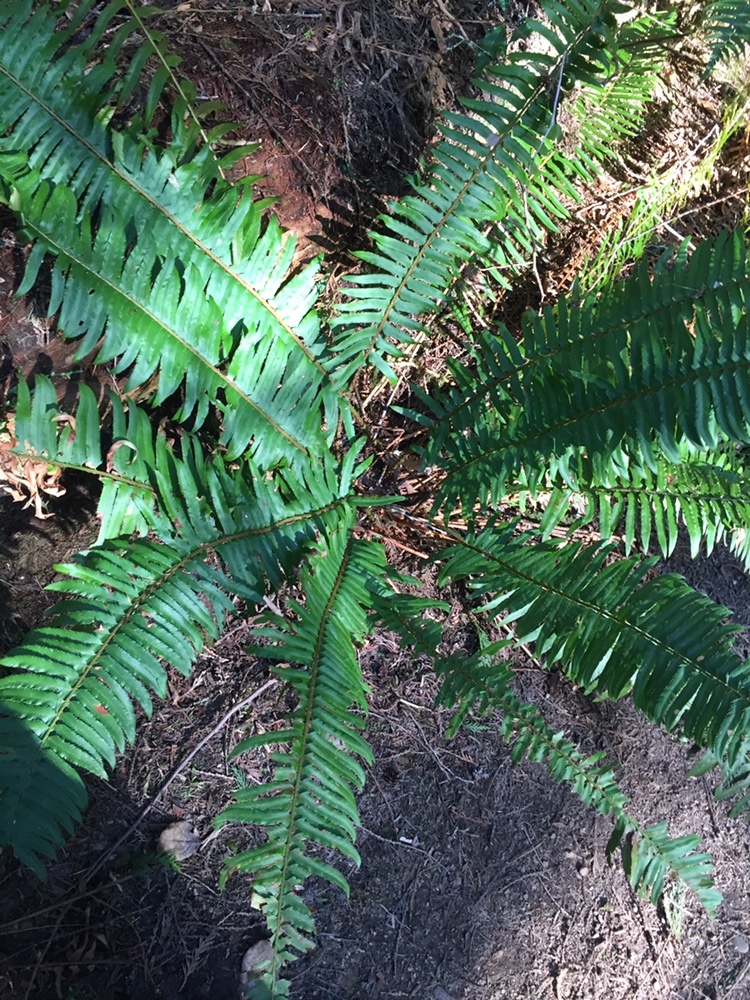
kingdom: Plantae
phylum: Tracheophyta
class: Polypodiopsida
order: Polypodiales
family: Dryopteridaceae
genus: Polystichum
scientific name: Polystichum munitum
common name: Western sword-fern
